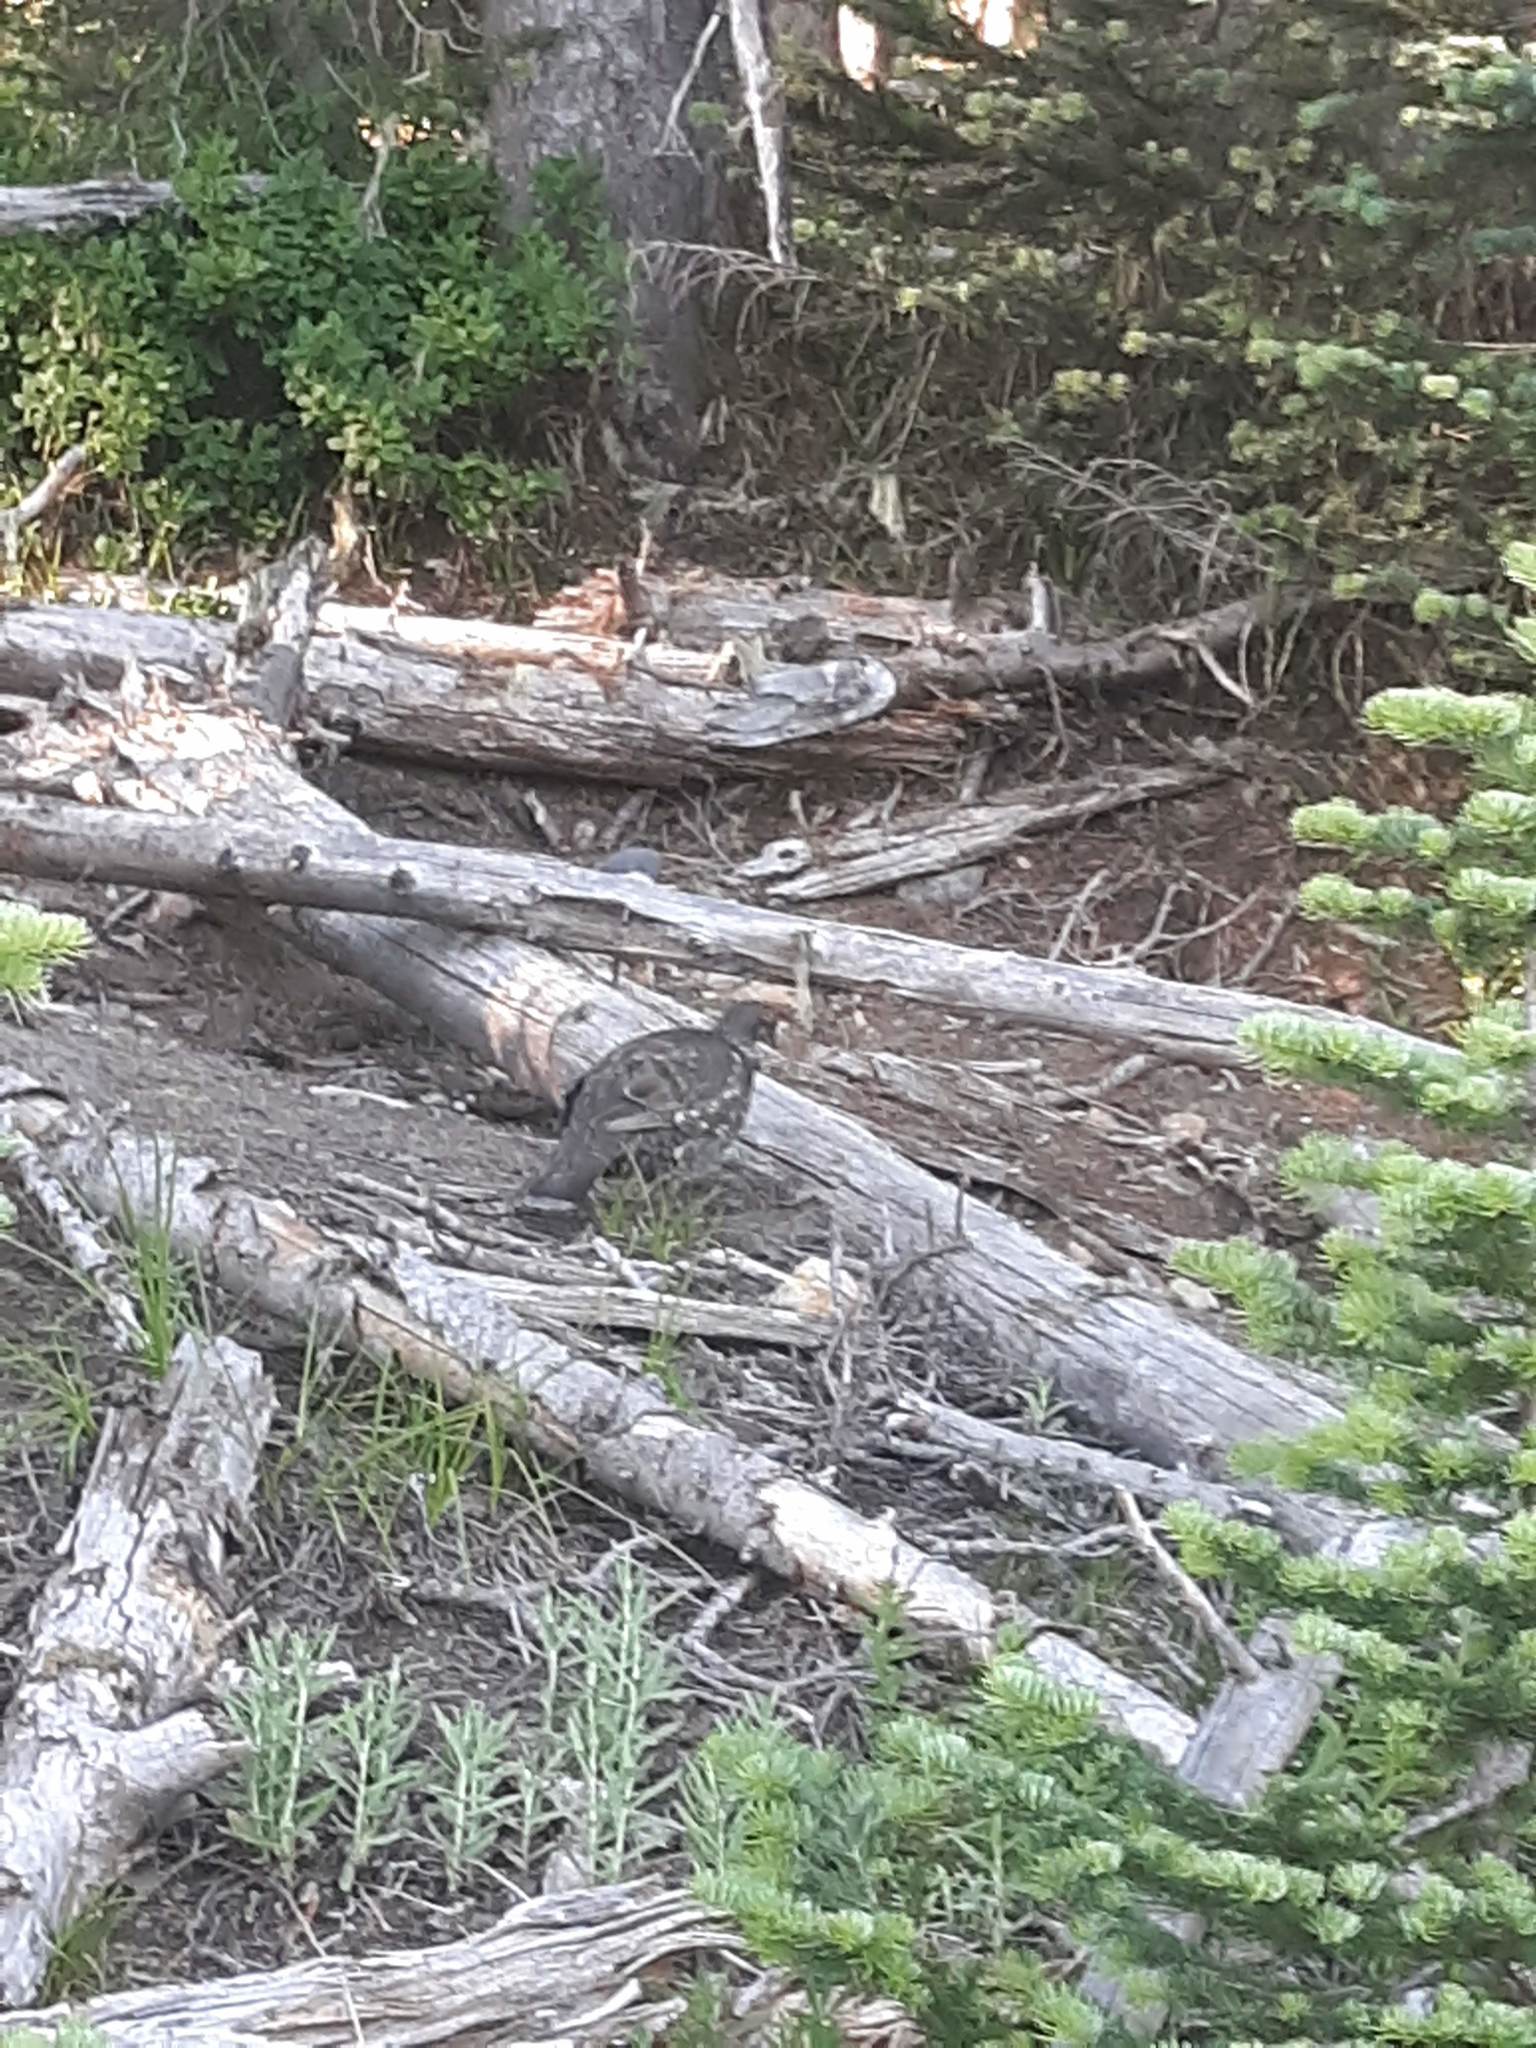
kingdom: Animalia
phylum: Chordata
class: Aves
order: Galliformes
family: Phasianidae
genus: Dendragapus
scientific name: Dendragapus fuliginosus
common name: Sooty grouse
